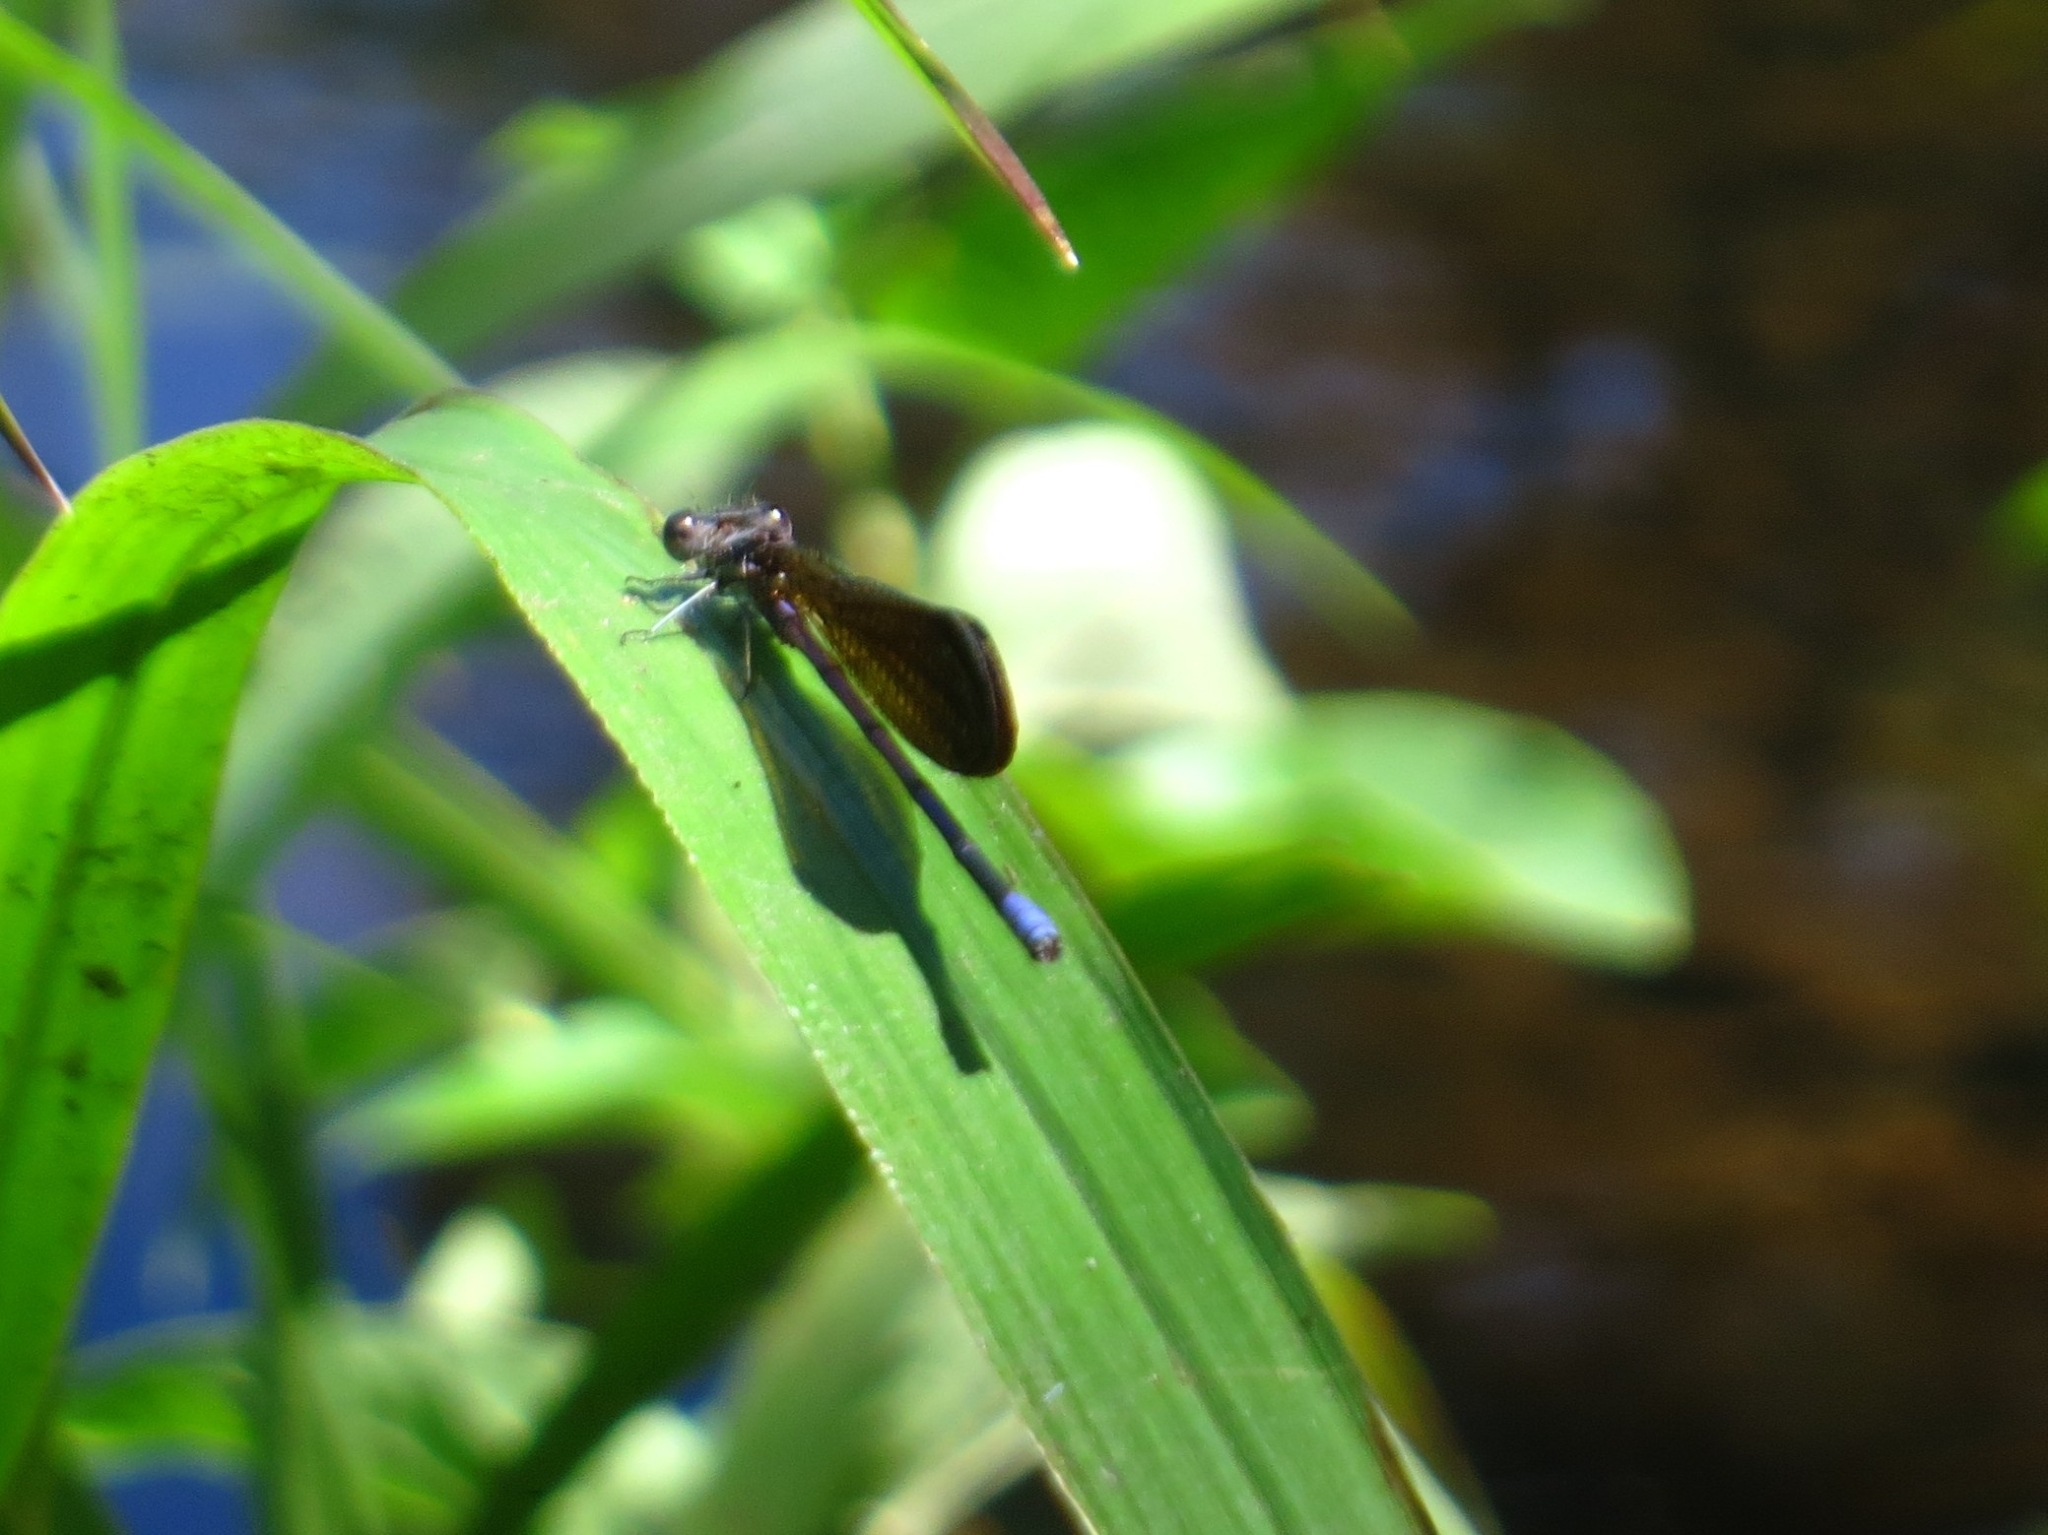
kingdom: Animalia
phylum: Arthropoda
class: Insecta
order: Odonata
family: Coenagrionidae
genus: Argia
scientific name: Argia fumipennis
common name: Variable dancer
